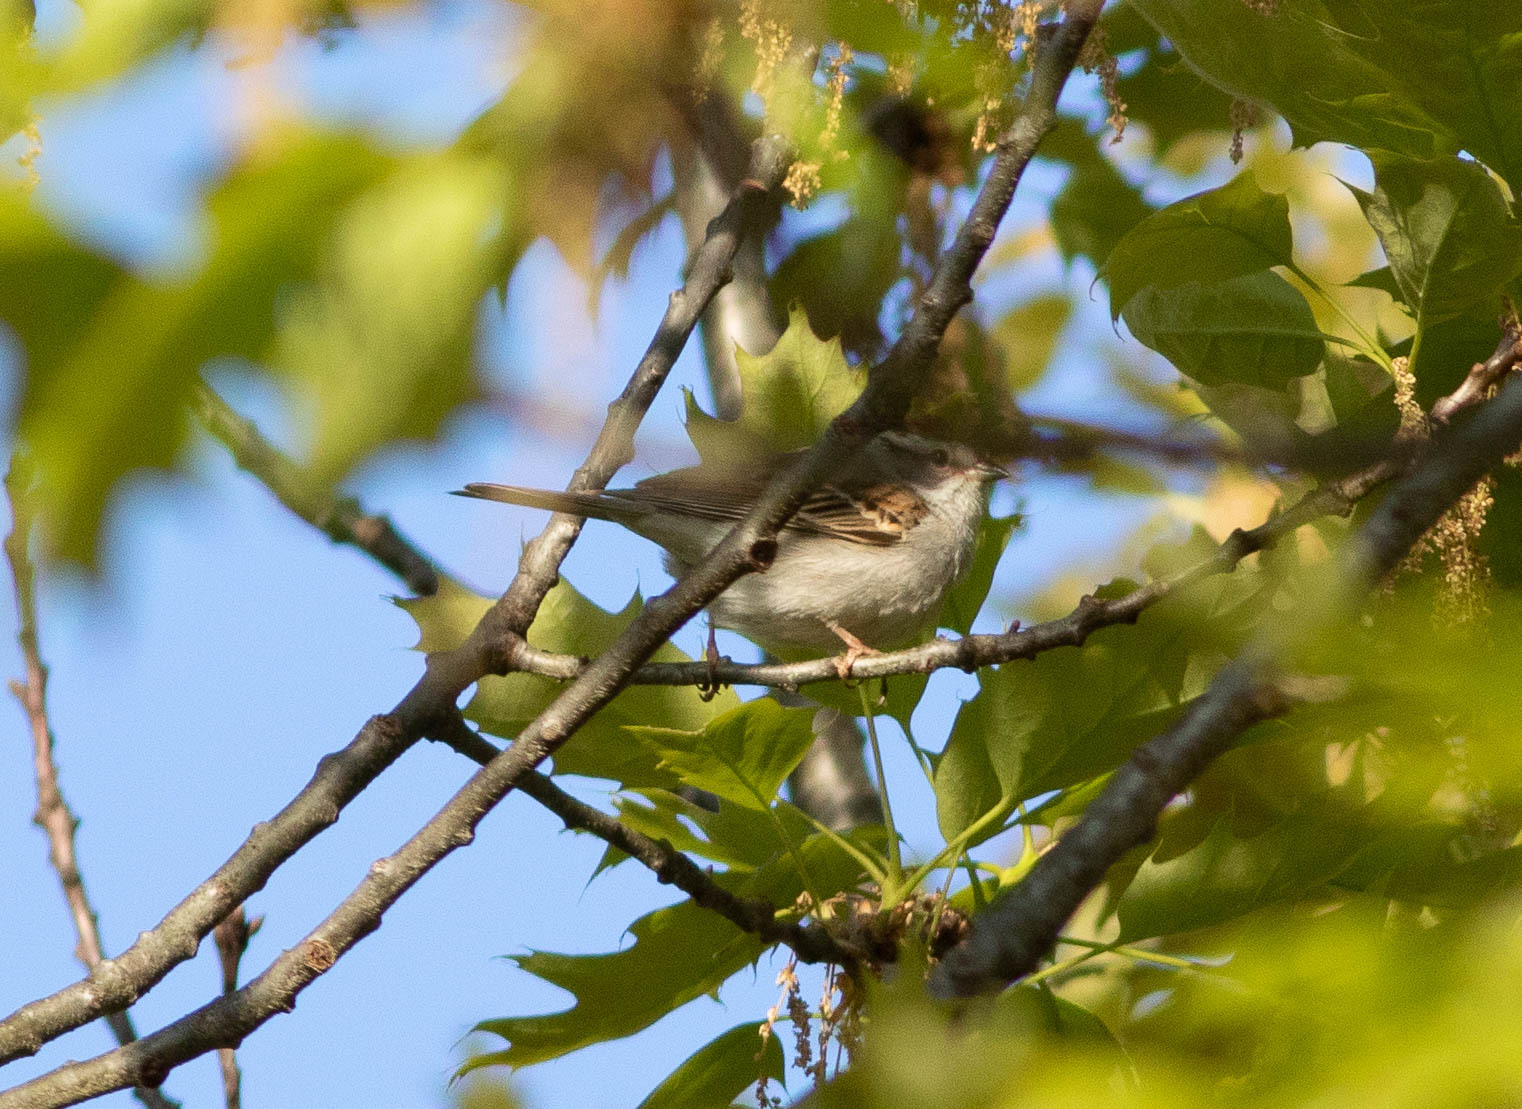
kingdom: Animalia
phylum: Chordata
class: Aves
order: Passeriformes
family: Passerellidae
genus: Spizella
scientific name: Spizella passerina
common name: Chipping sparrow
